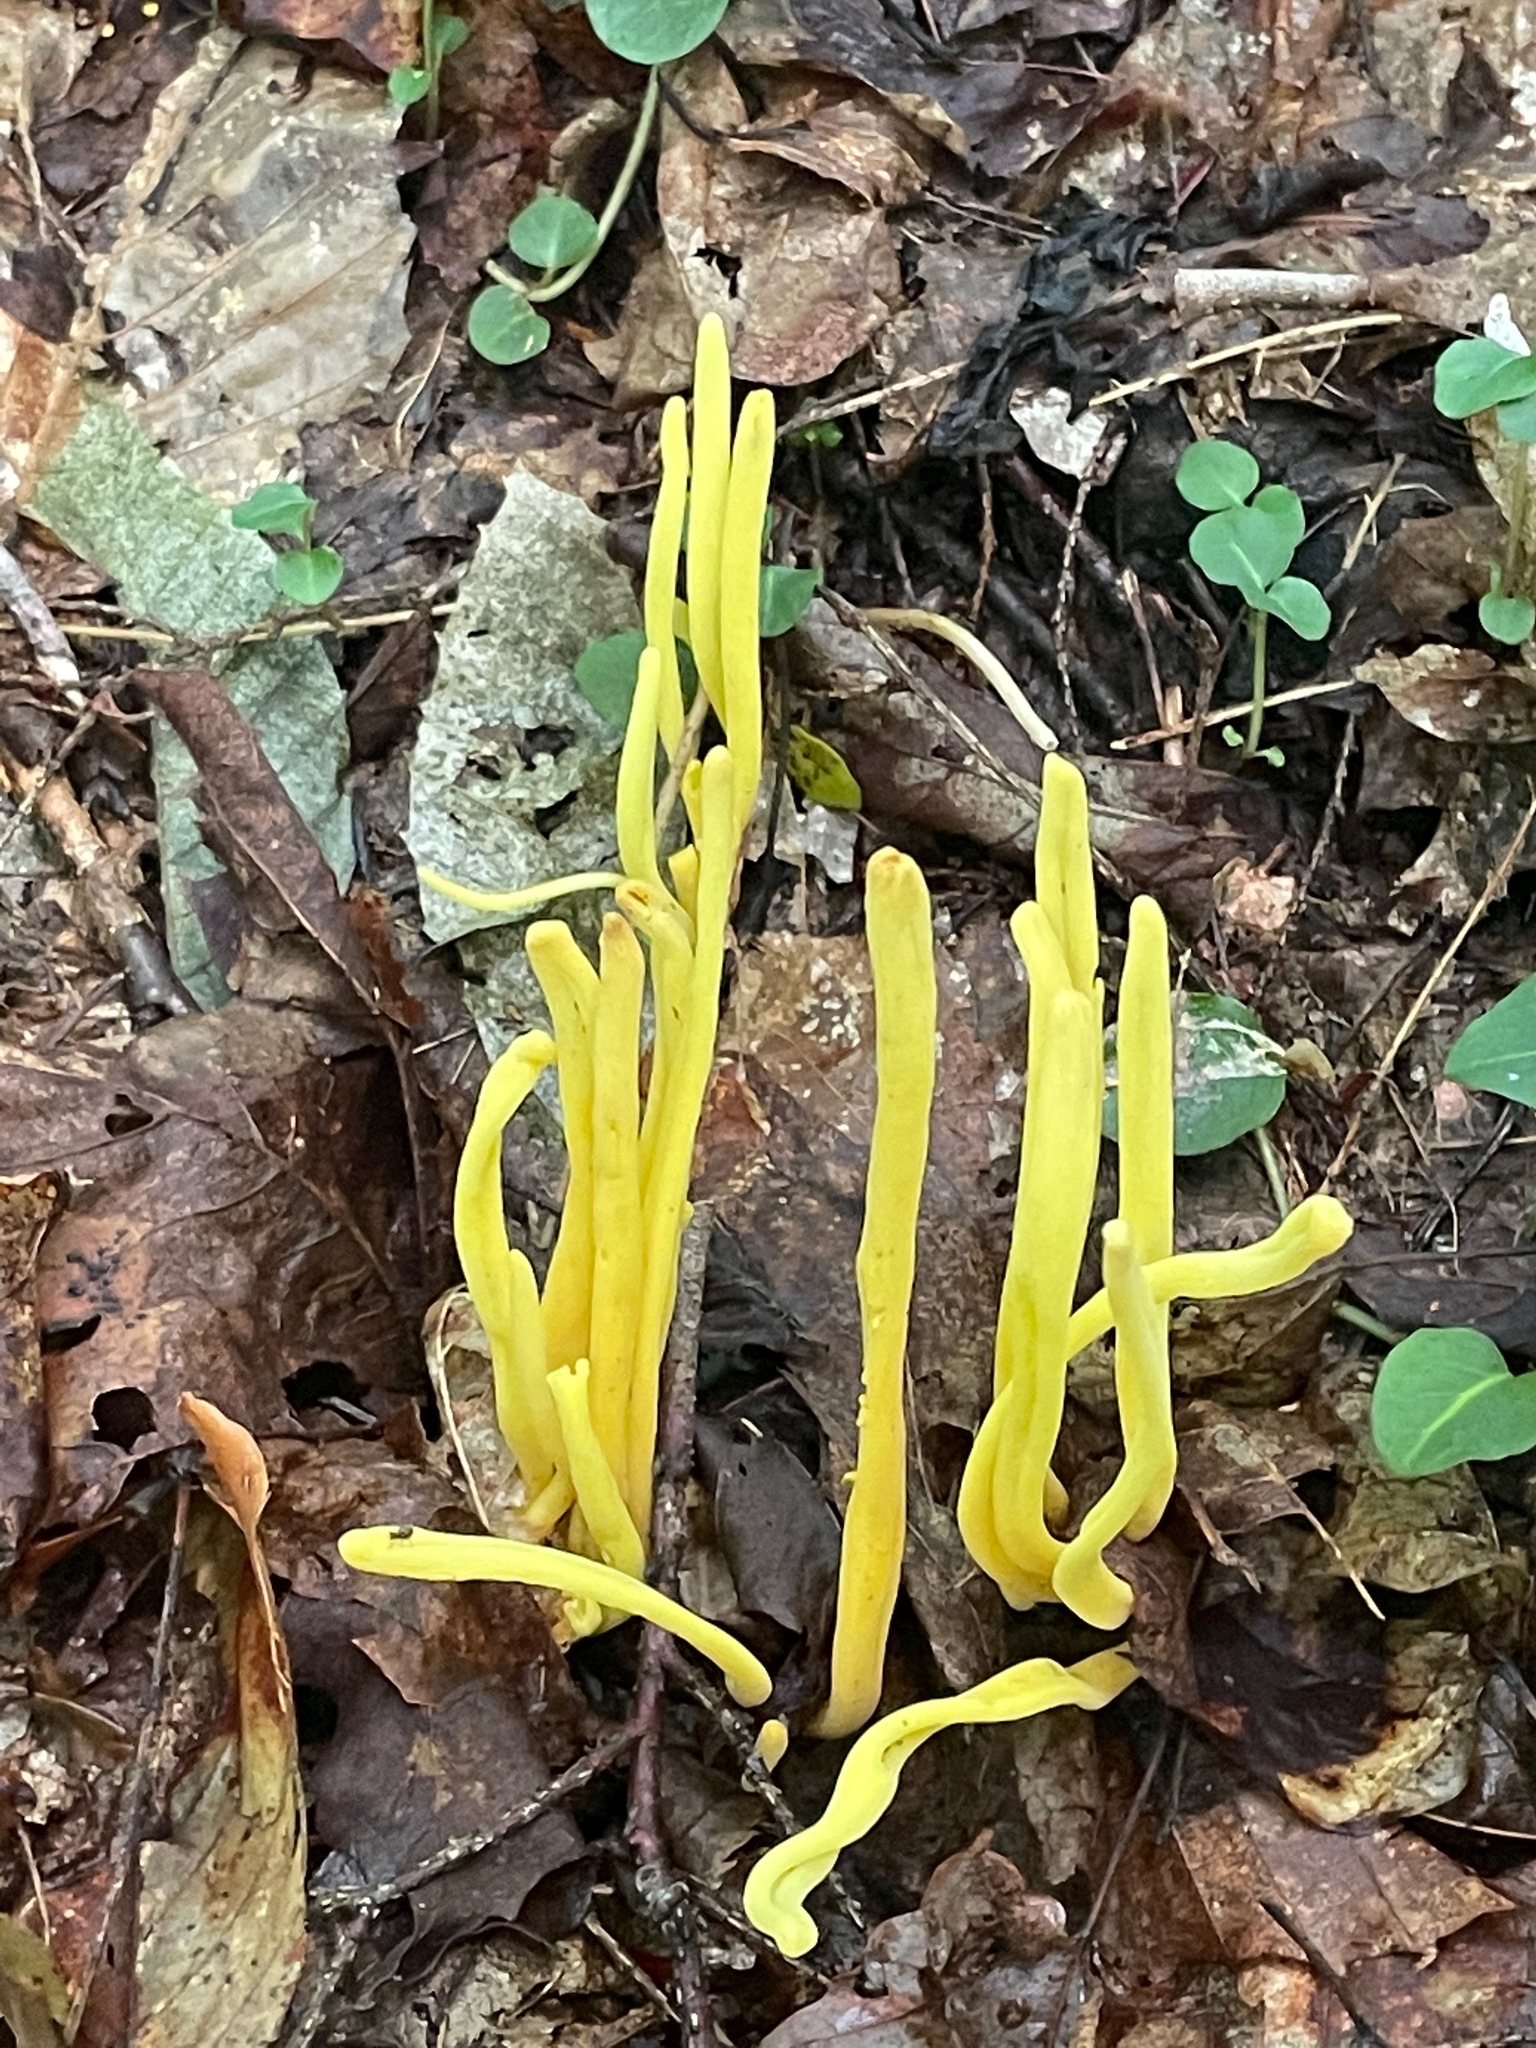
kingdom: Fungi
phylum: Basidiomycota
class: Agaricomycetes
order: Agaricales
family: Clavariaceae
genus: Clavulinopsis
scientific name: Clavulinopsis fusiformis
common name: Golden spindles
